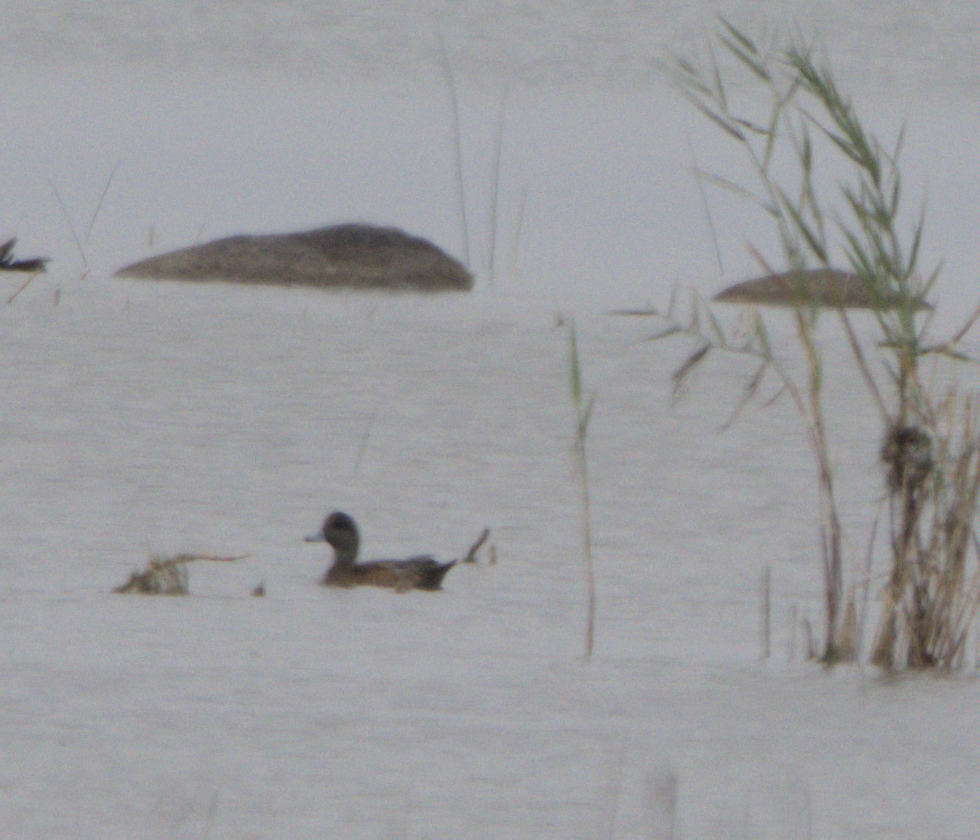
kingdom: Animalia
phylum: Chordata
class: Aves
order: Anseriformes
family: Anatidae
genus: Mareca
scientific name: Mareca americana
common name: American wigeon
